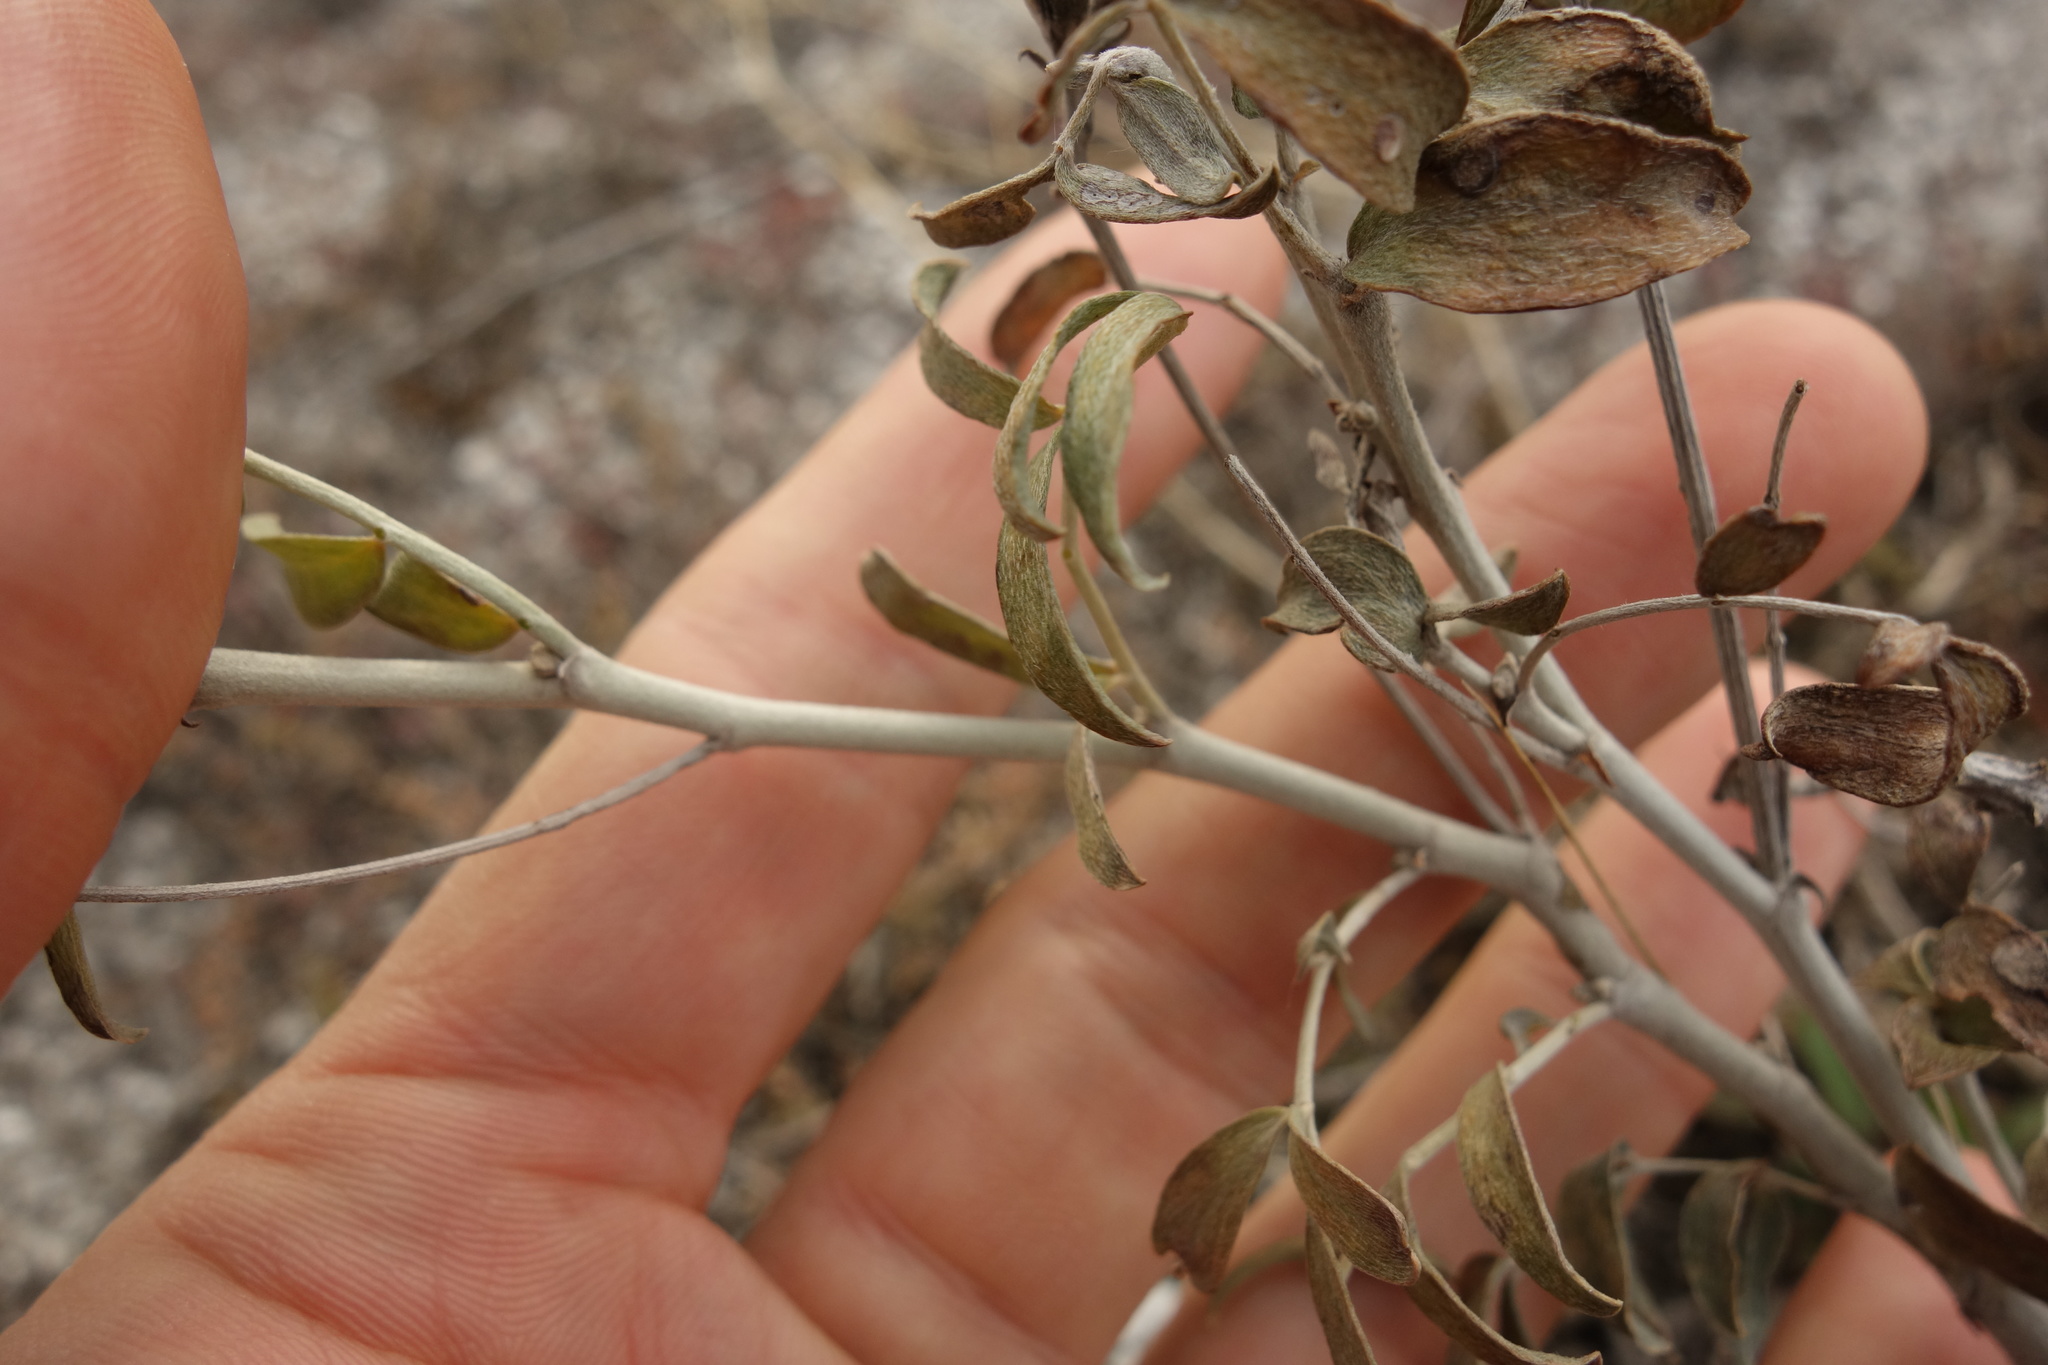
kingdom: Plantae
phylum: Tracheophyta
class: Magnoliopsida
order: Fabales
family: Fabaceae
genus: Astragalus
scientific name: Astragalus albicaulis
